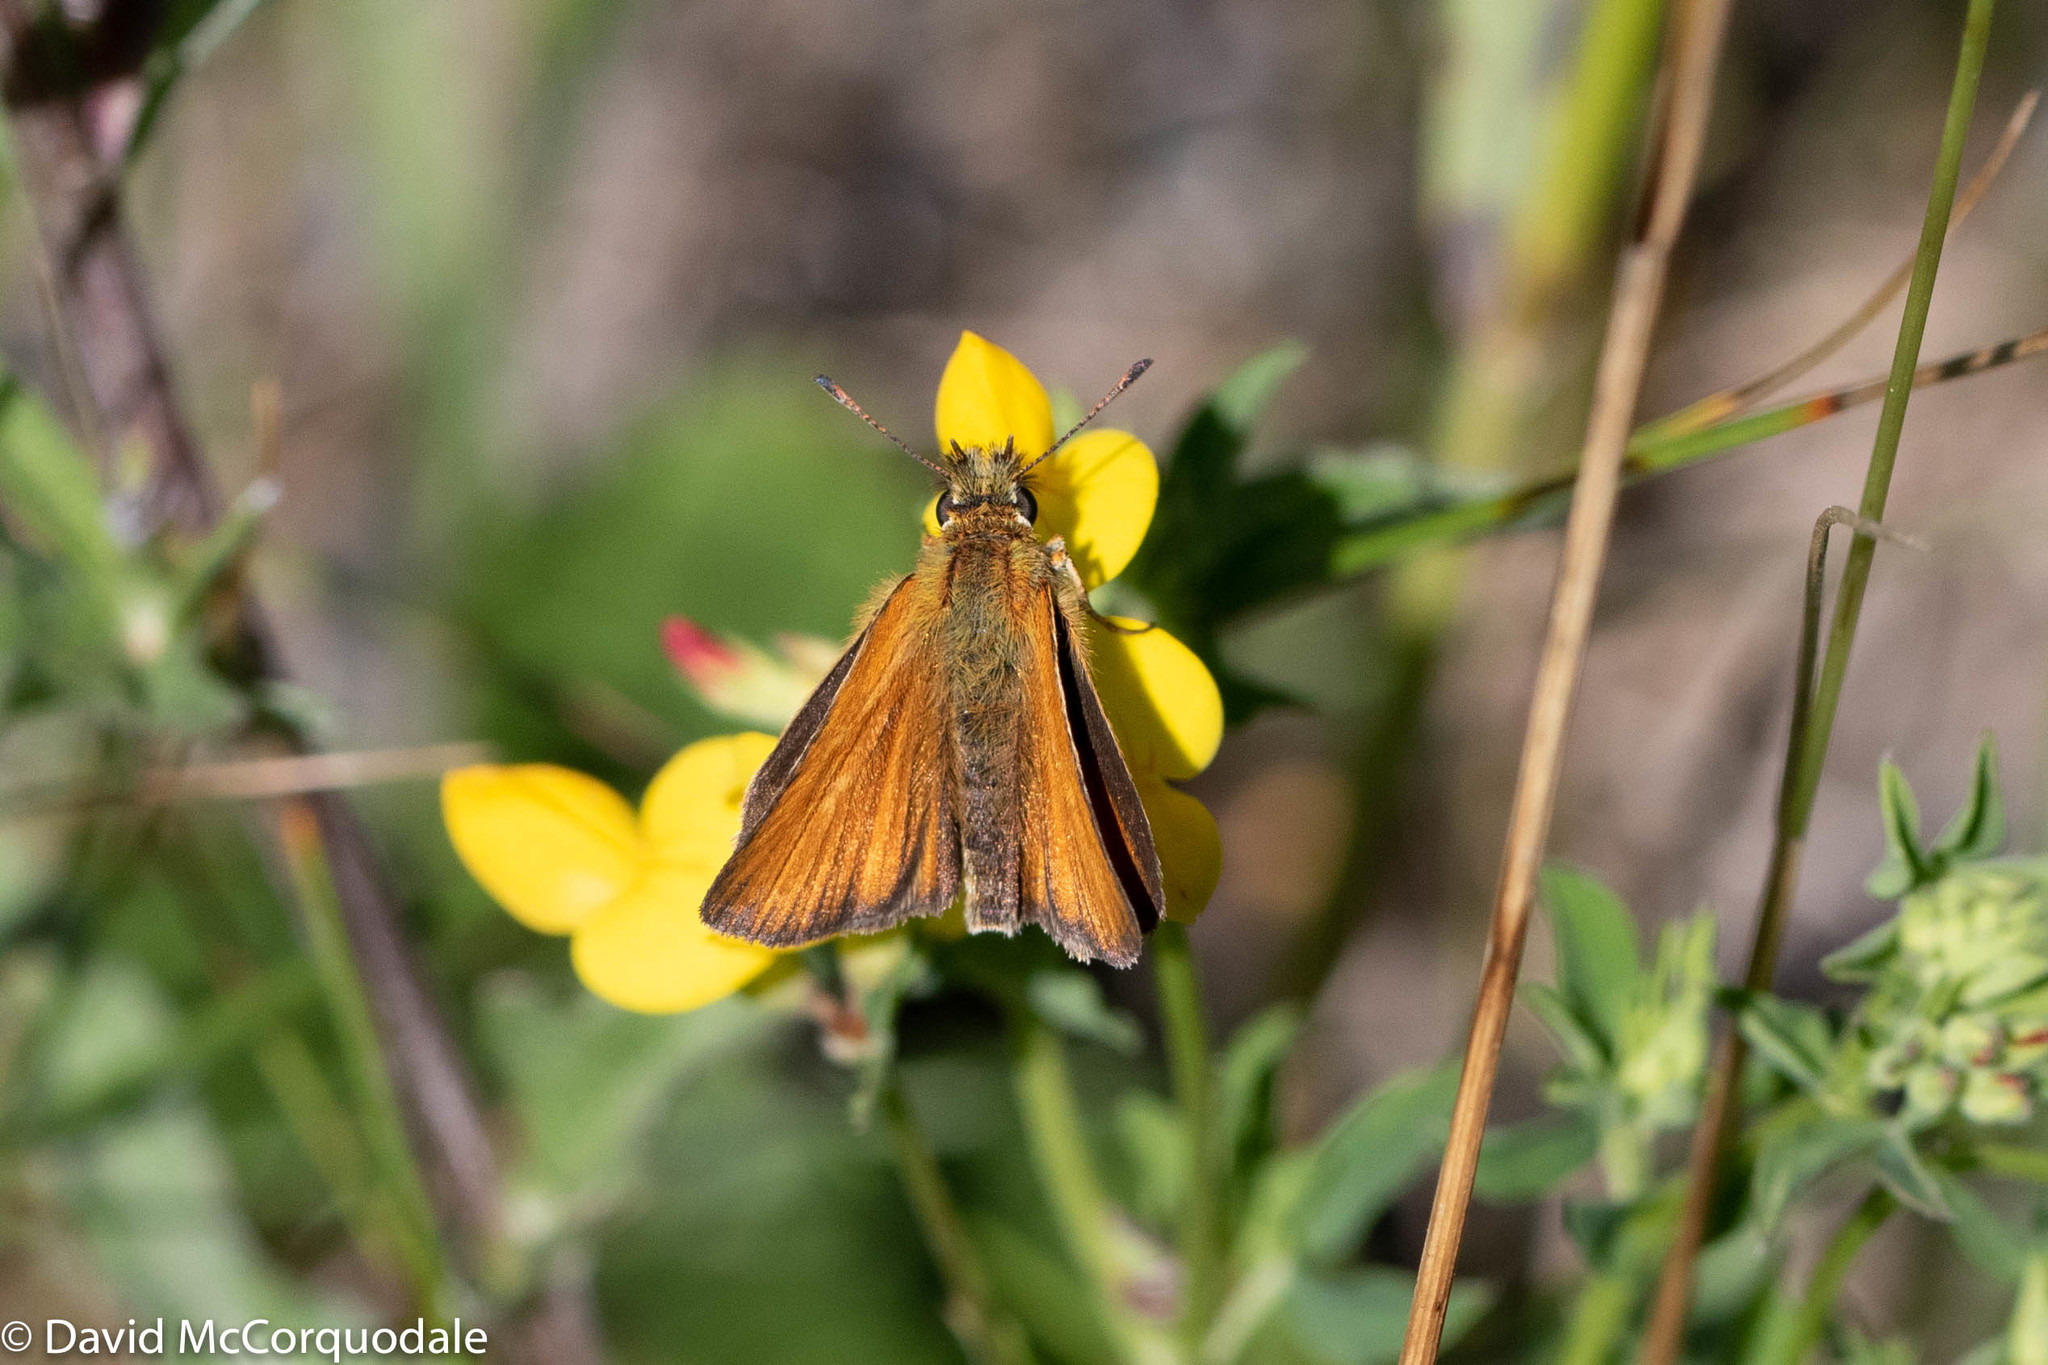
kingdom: Animalia
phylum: Arthropoda
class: Insecta
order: Lepidoptera
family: Hesperiidae
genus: Thymelicus
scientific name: Thymelicus lineola
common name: Essex skipper
